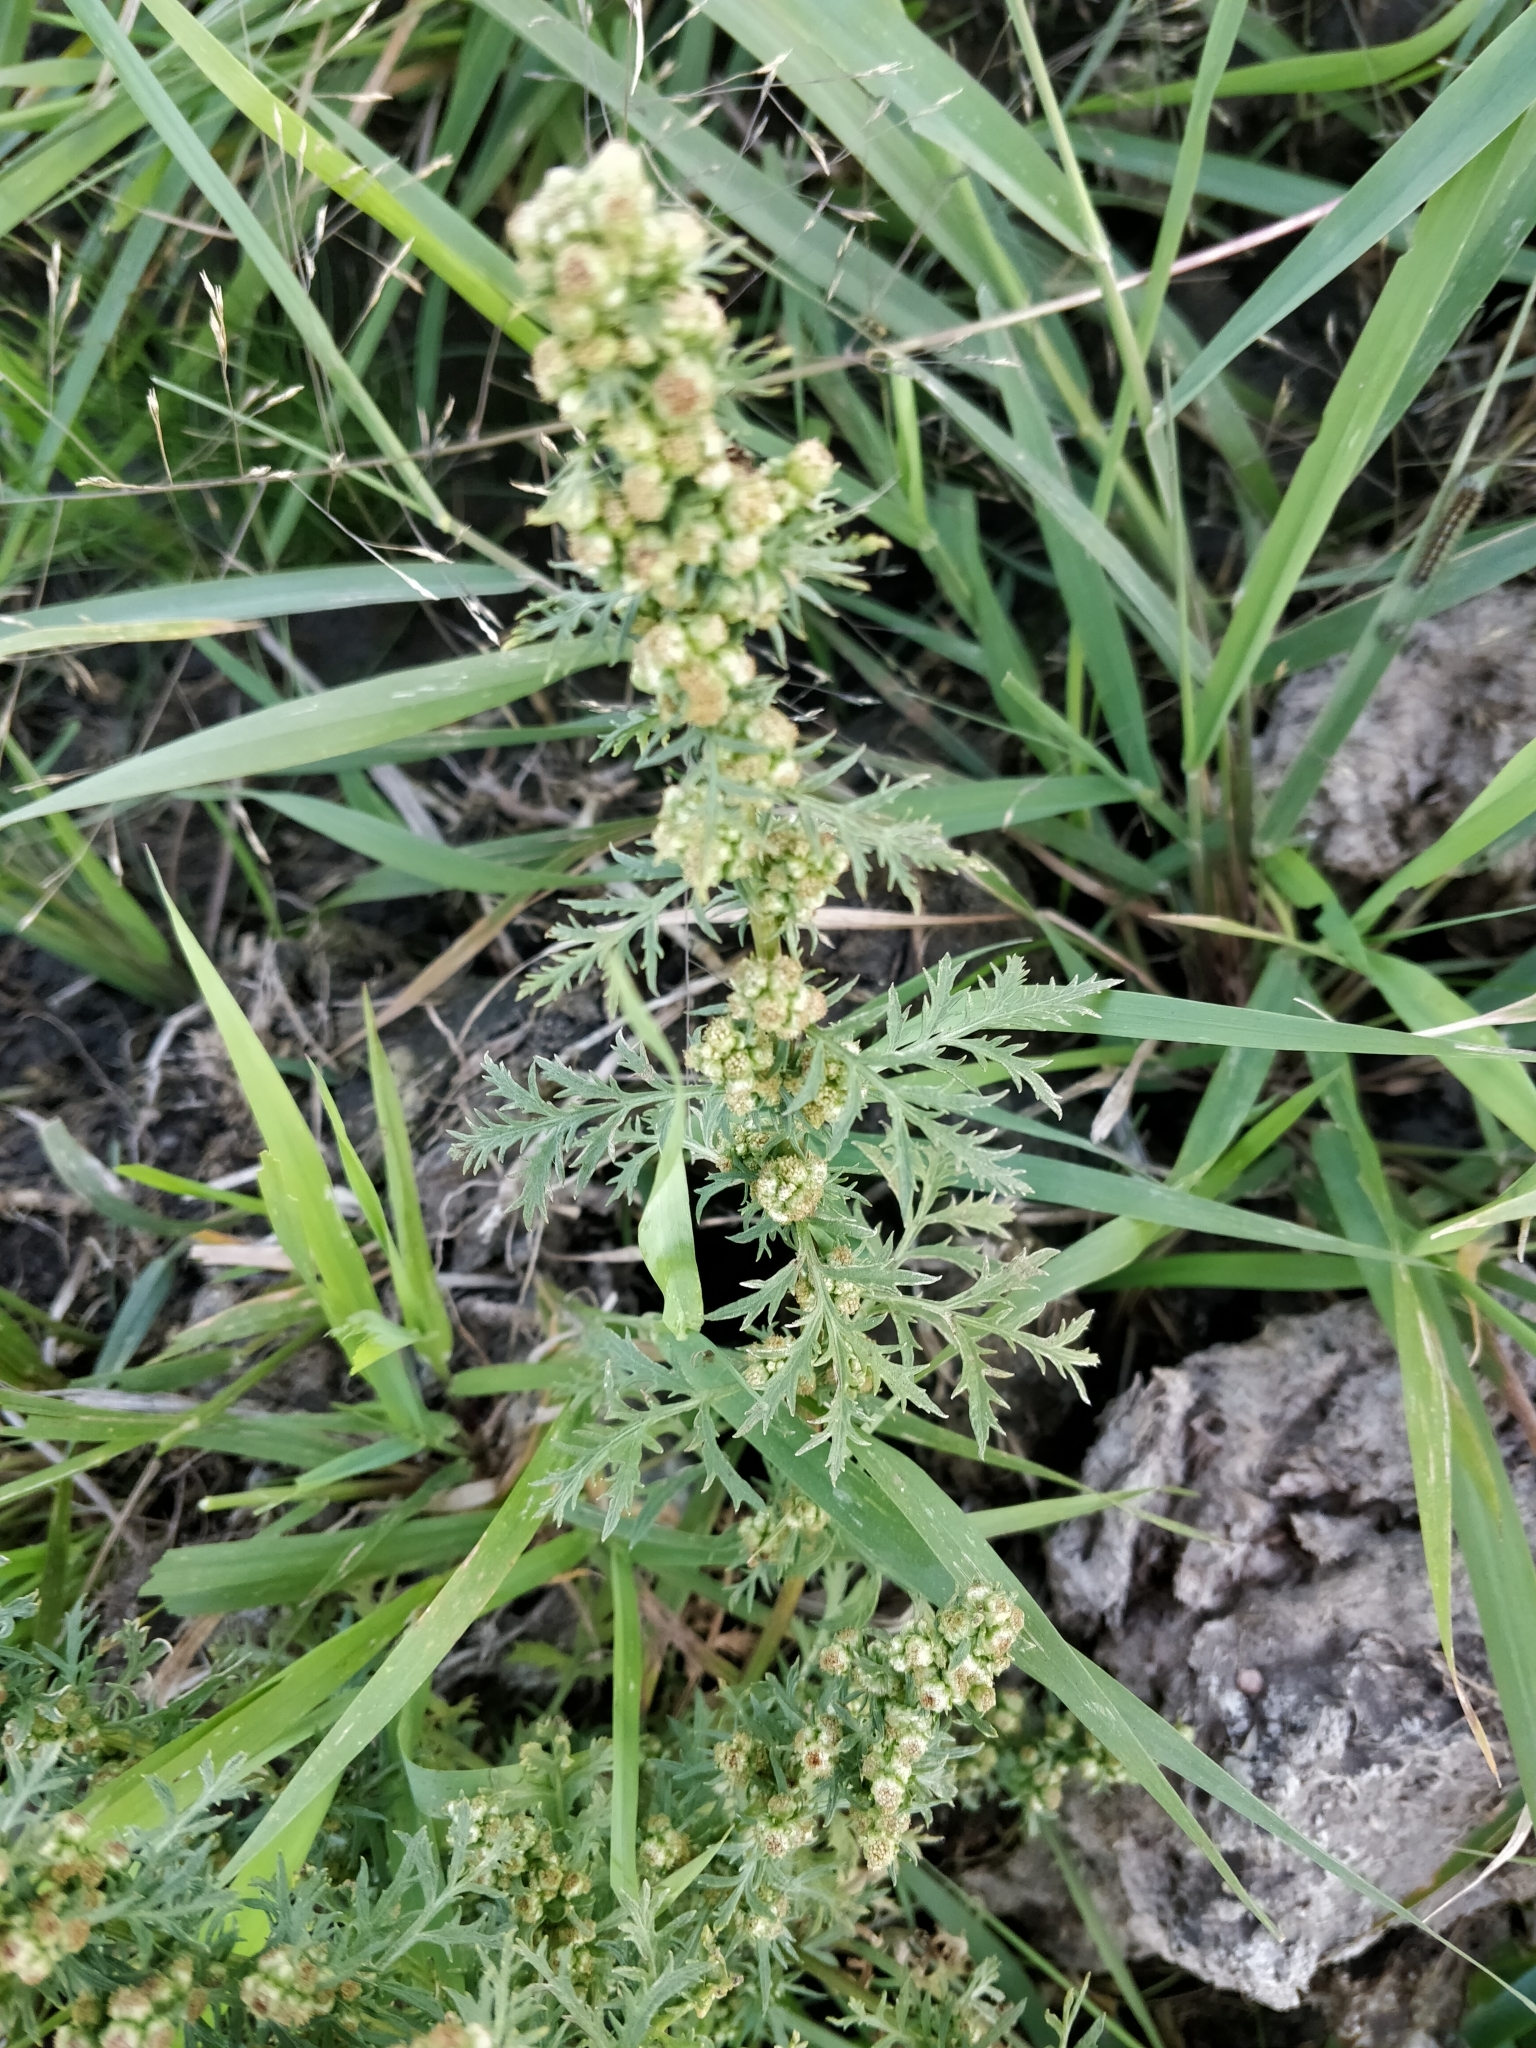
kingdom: Plantae
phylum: Tracheophyta
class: Magnoliopsida
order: Asterales
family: Asteraceae
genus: Artemisia
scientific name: Artemisia biennis
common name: Biennial wormwood
